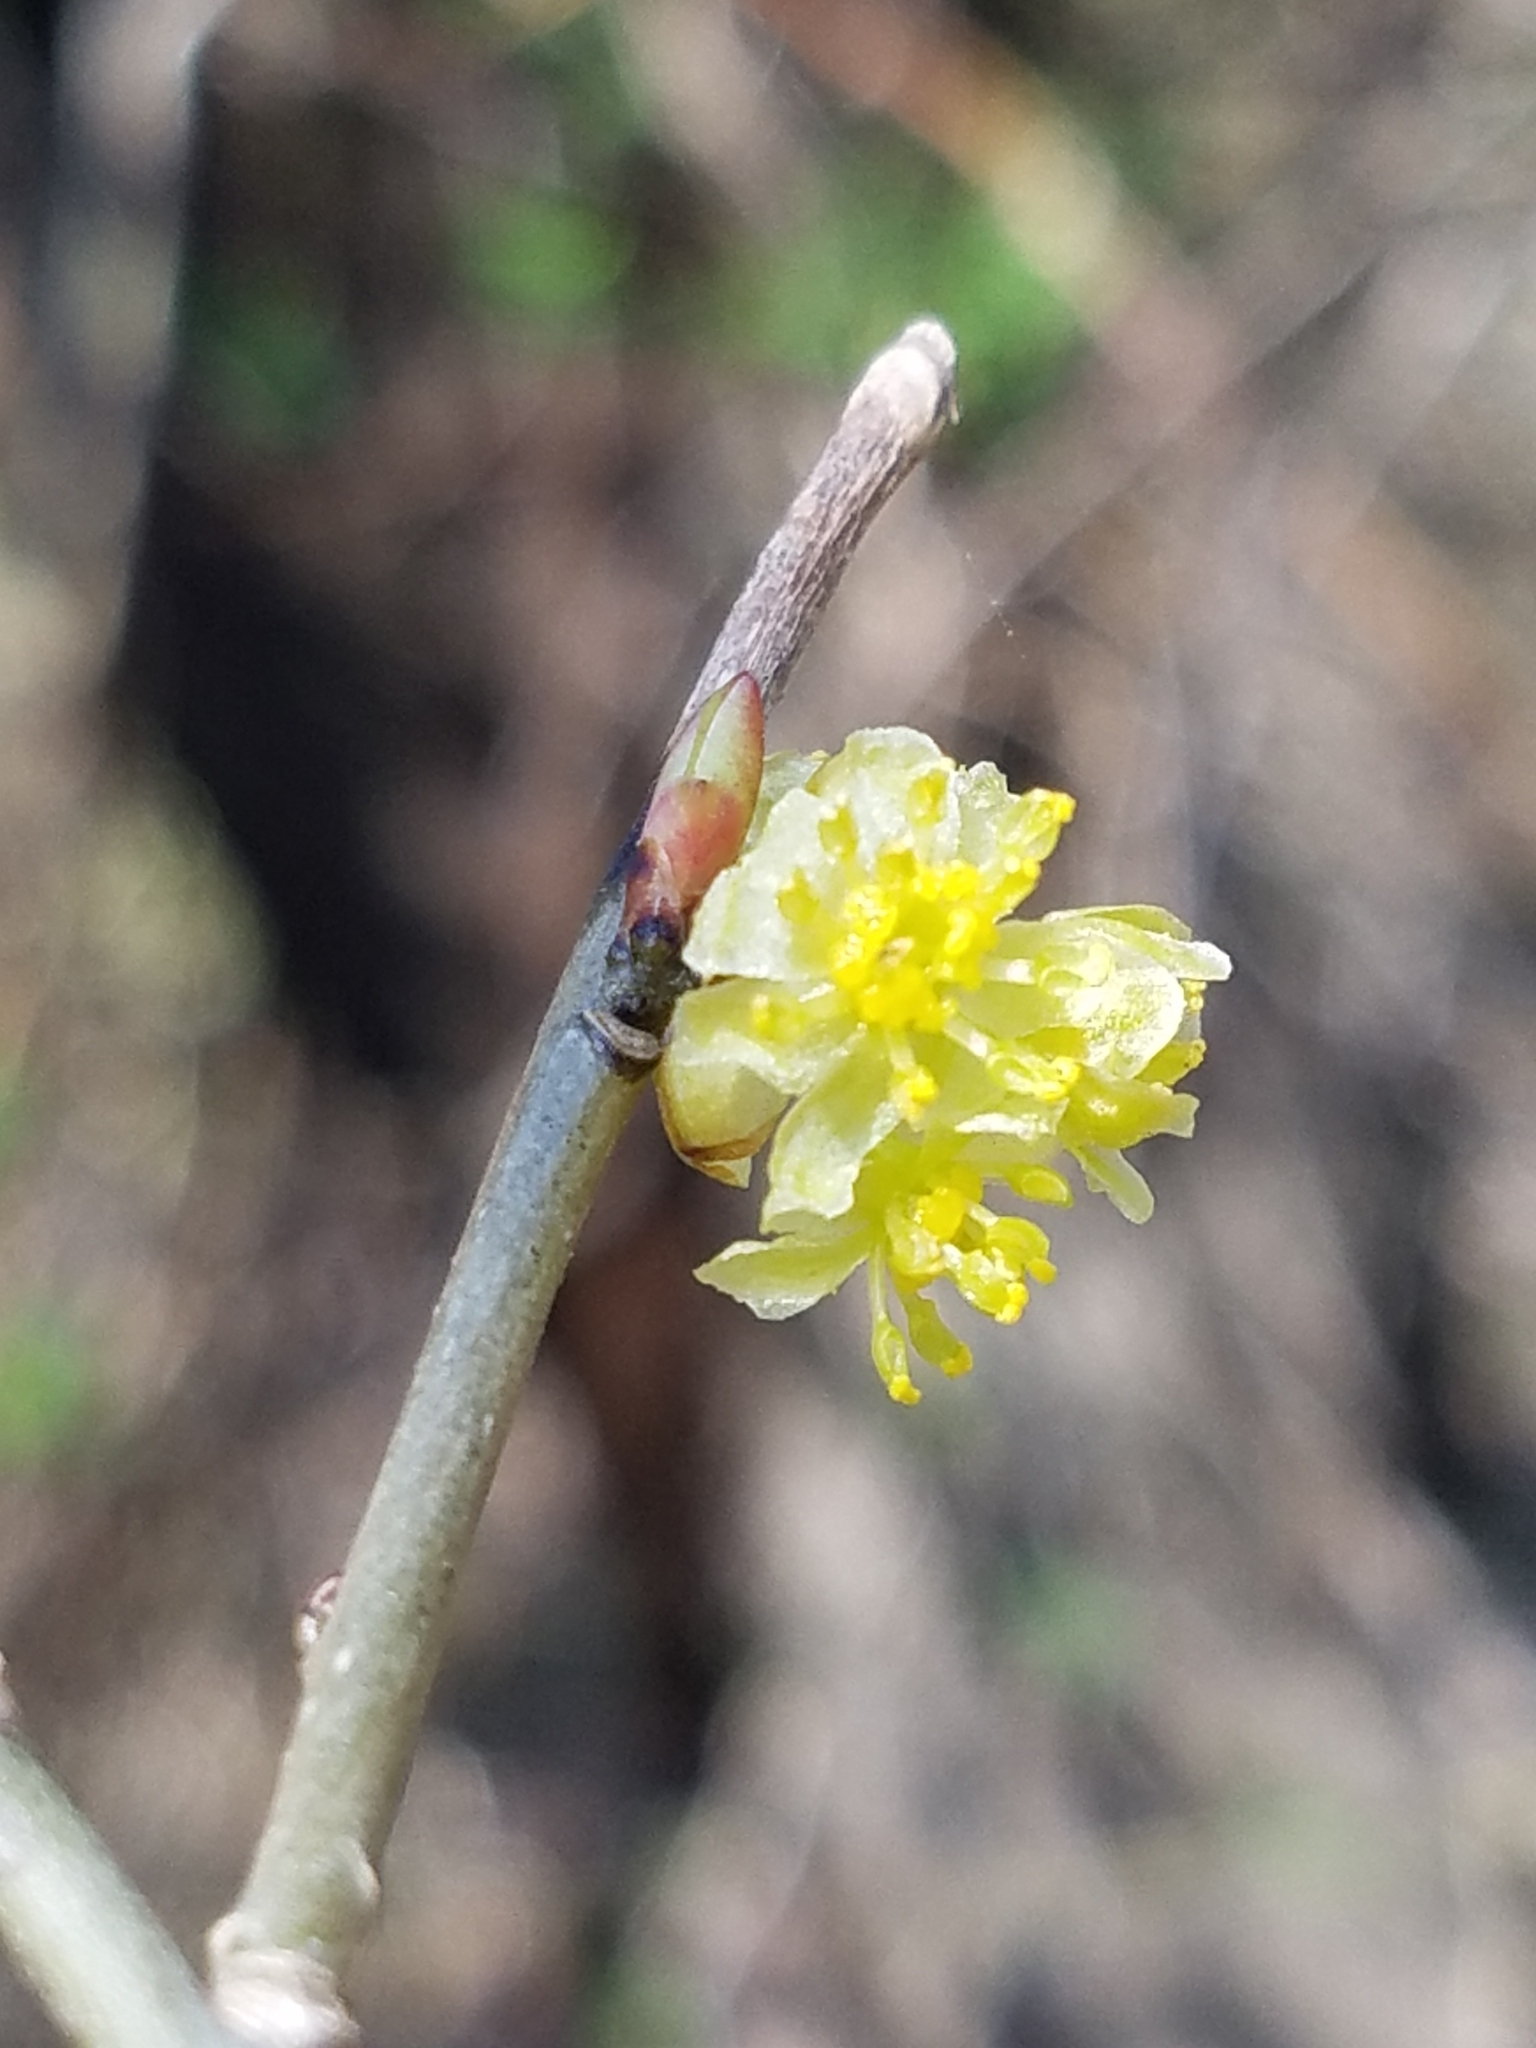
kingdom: Plantae
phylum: Tracheophyta
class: Magnoliopsida
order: Laurales
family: Lauraceae
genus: Lindera
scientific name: Lindera benzoin
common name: Spicebush
